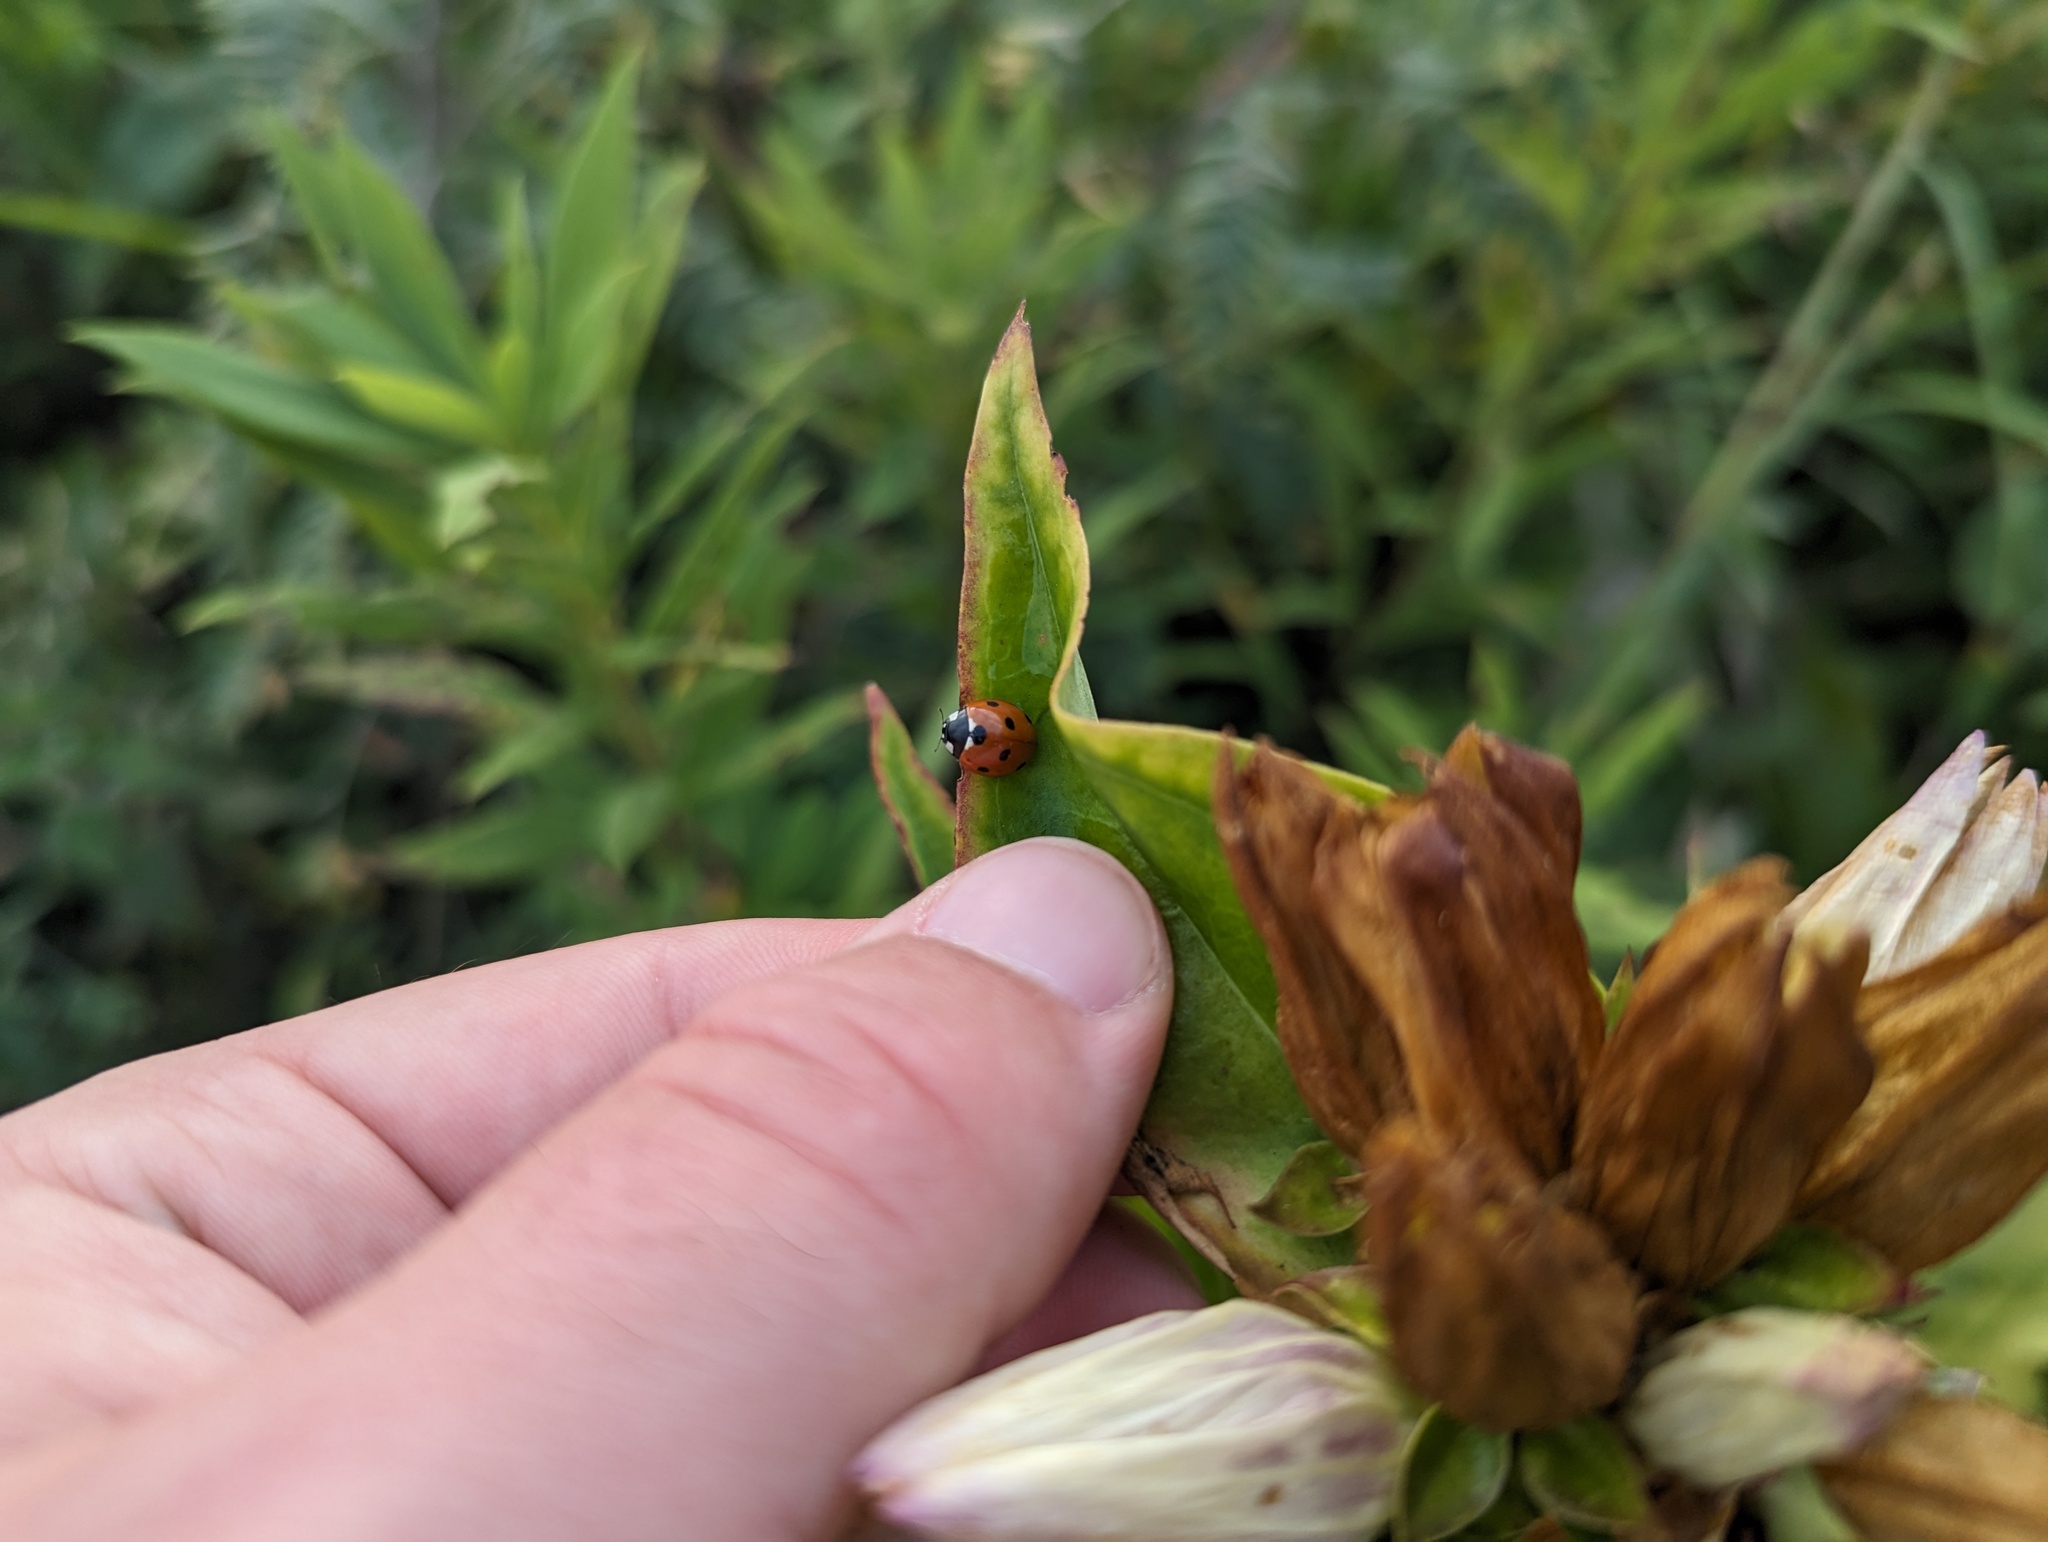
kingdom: Animalia
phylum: Arthropoda
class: Insecta
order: Coleoptera
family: Coccinellidae
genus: Coccinella
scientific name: Coccinella septempunctata
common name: Sevenspotted lady beetle
